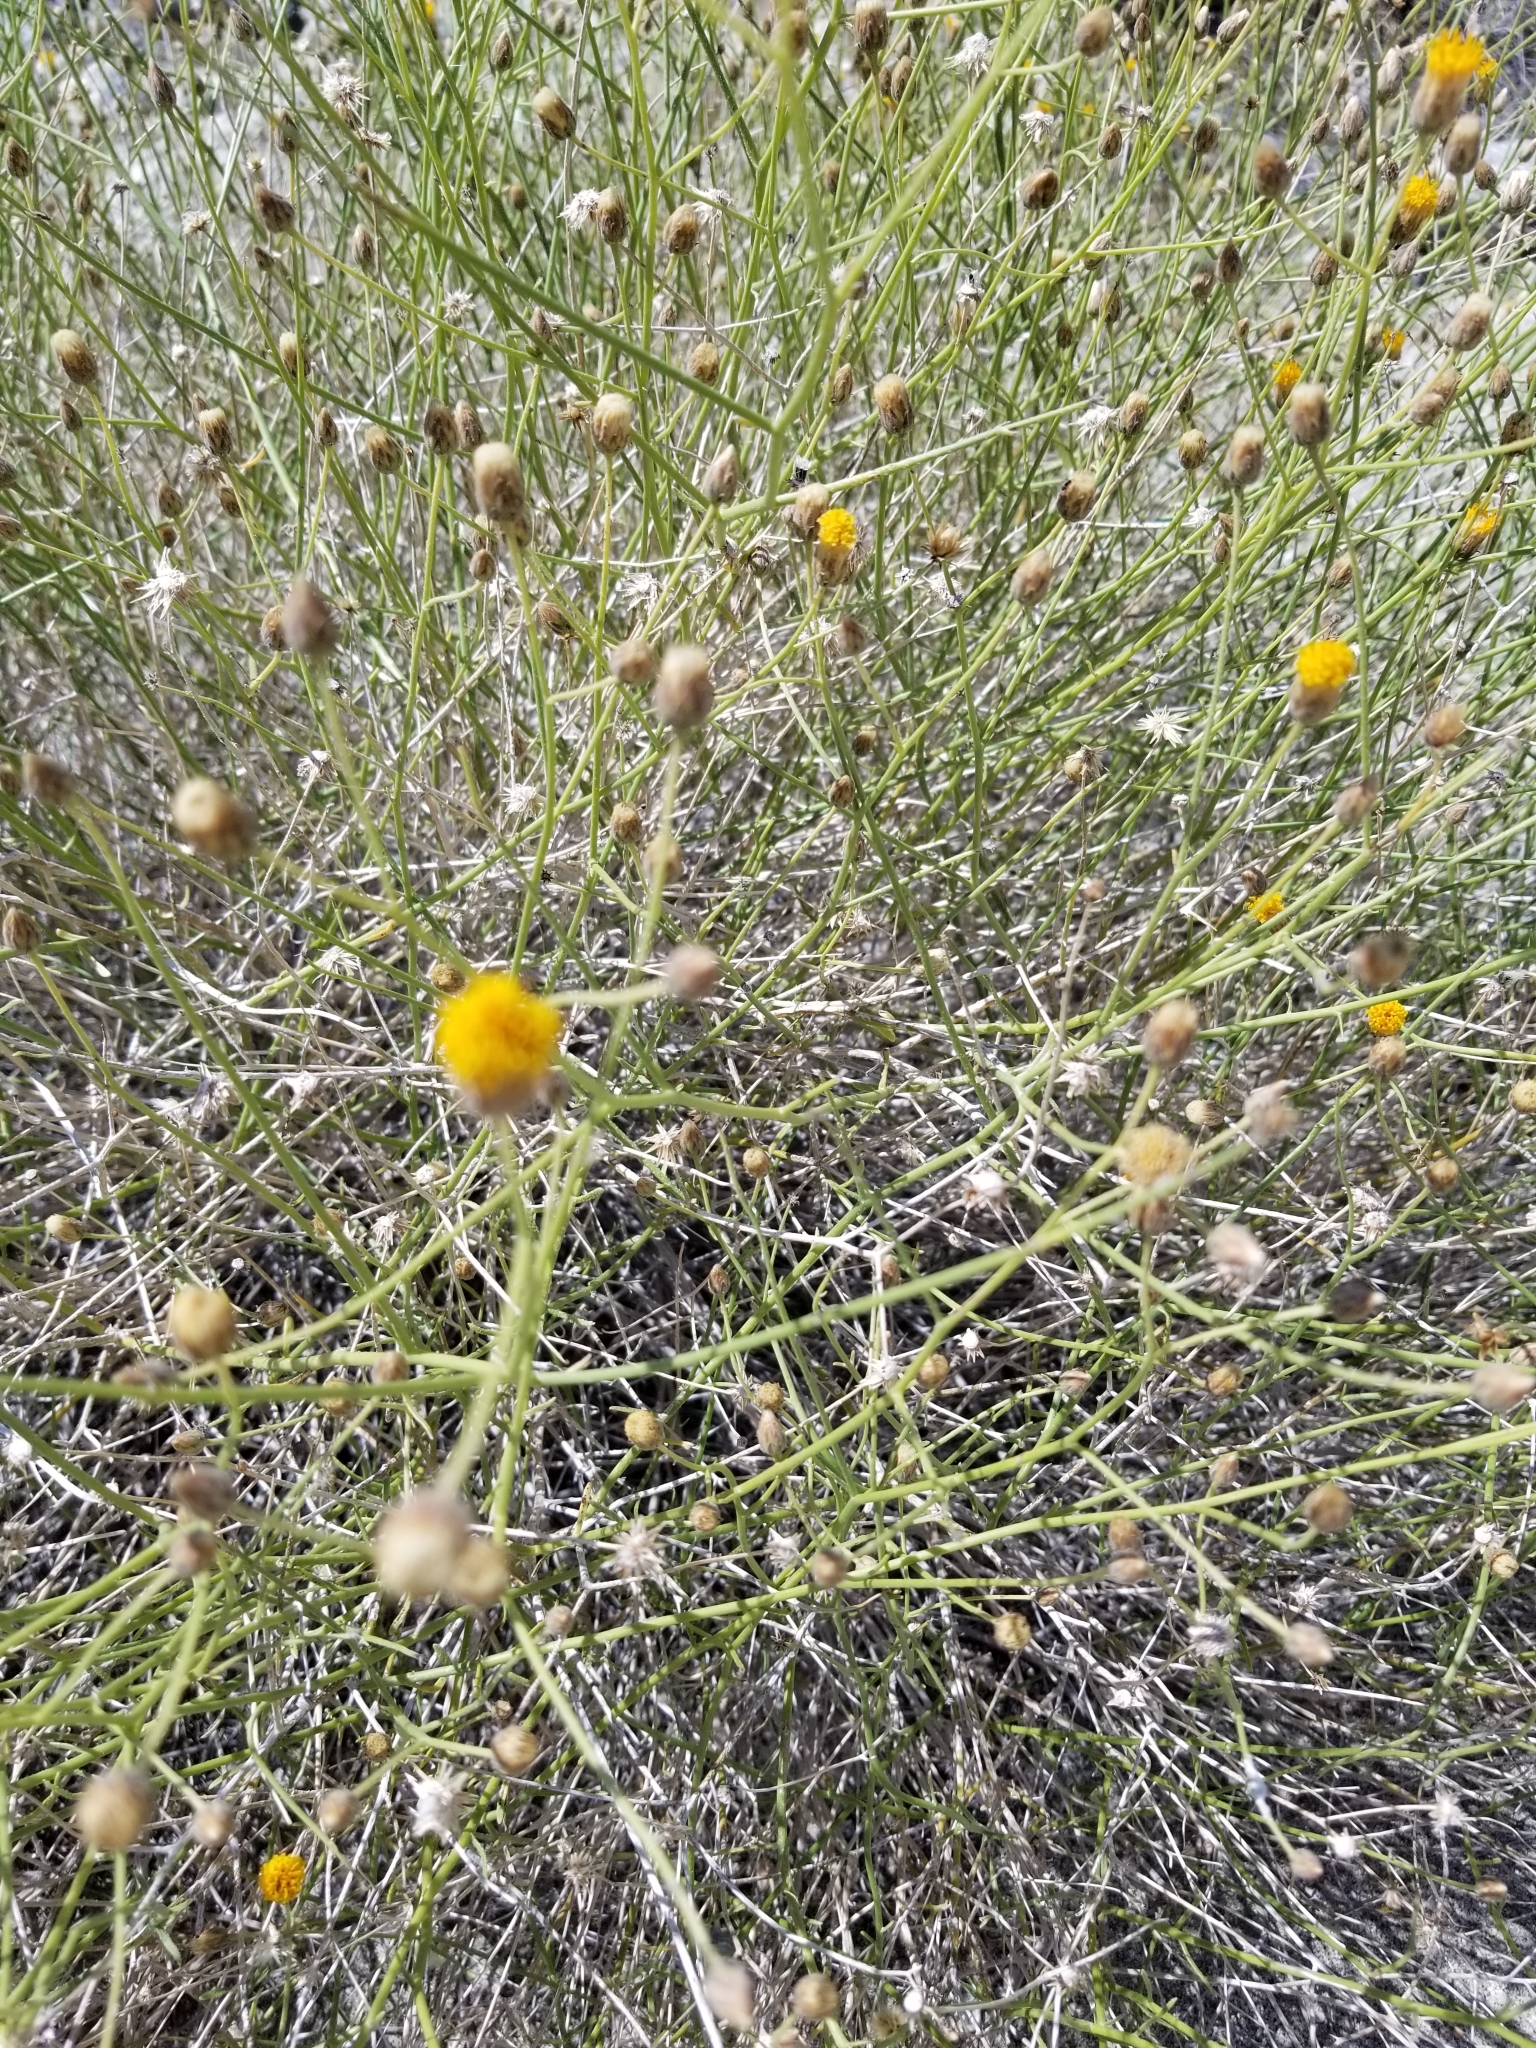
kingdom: Plantae
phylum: Tracheophyta
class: Magnoliopsida
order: Asterales
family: Asteraceae
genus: Bebbia
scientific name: Bebbia juncea
